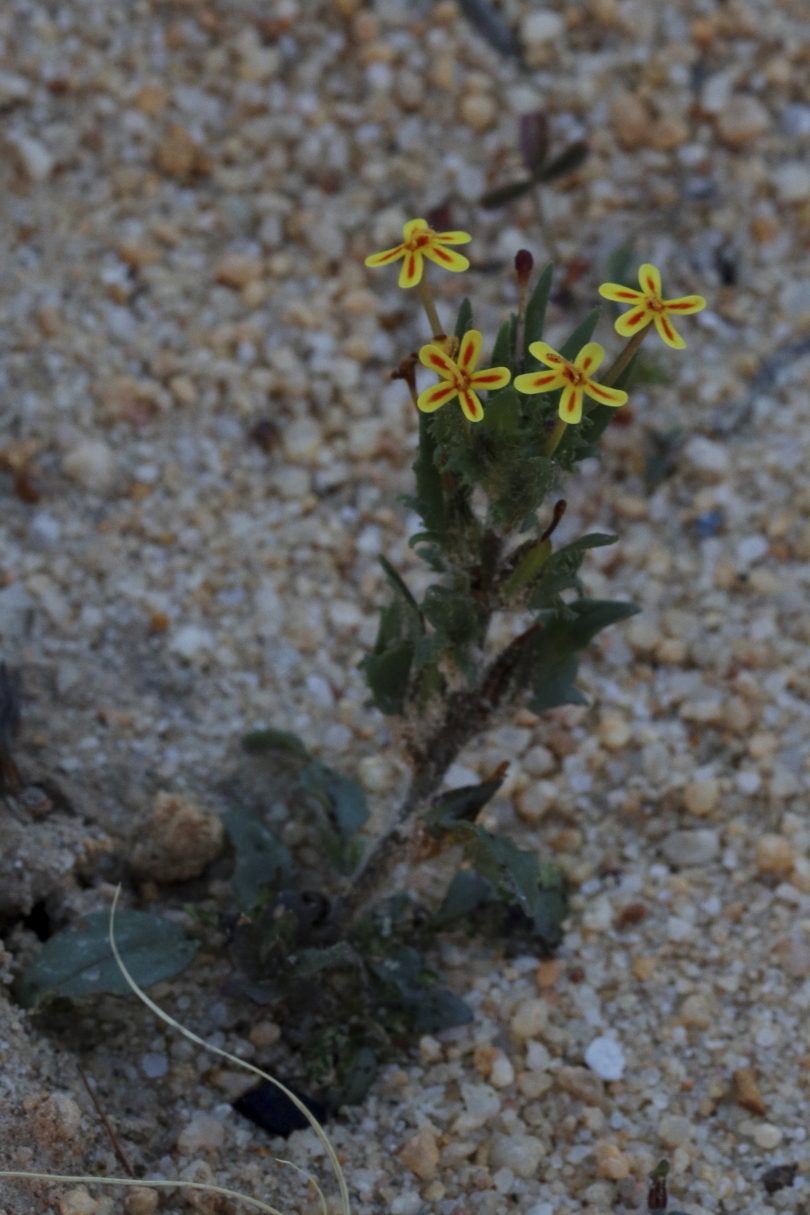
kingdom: Plantae
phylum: Tracheophyta
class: Magnoliopsida
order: Lamiales
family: Scrophulariaceae
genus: Zaluzianskya
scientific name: Zaluzianskya divaricata
